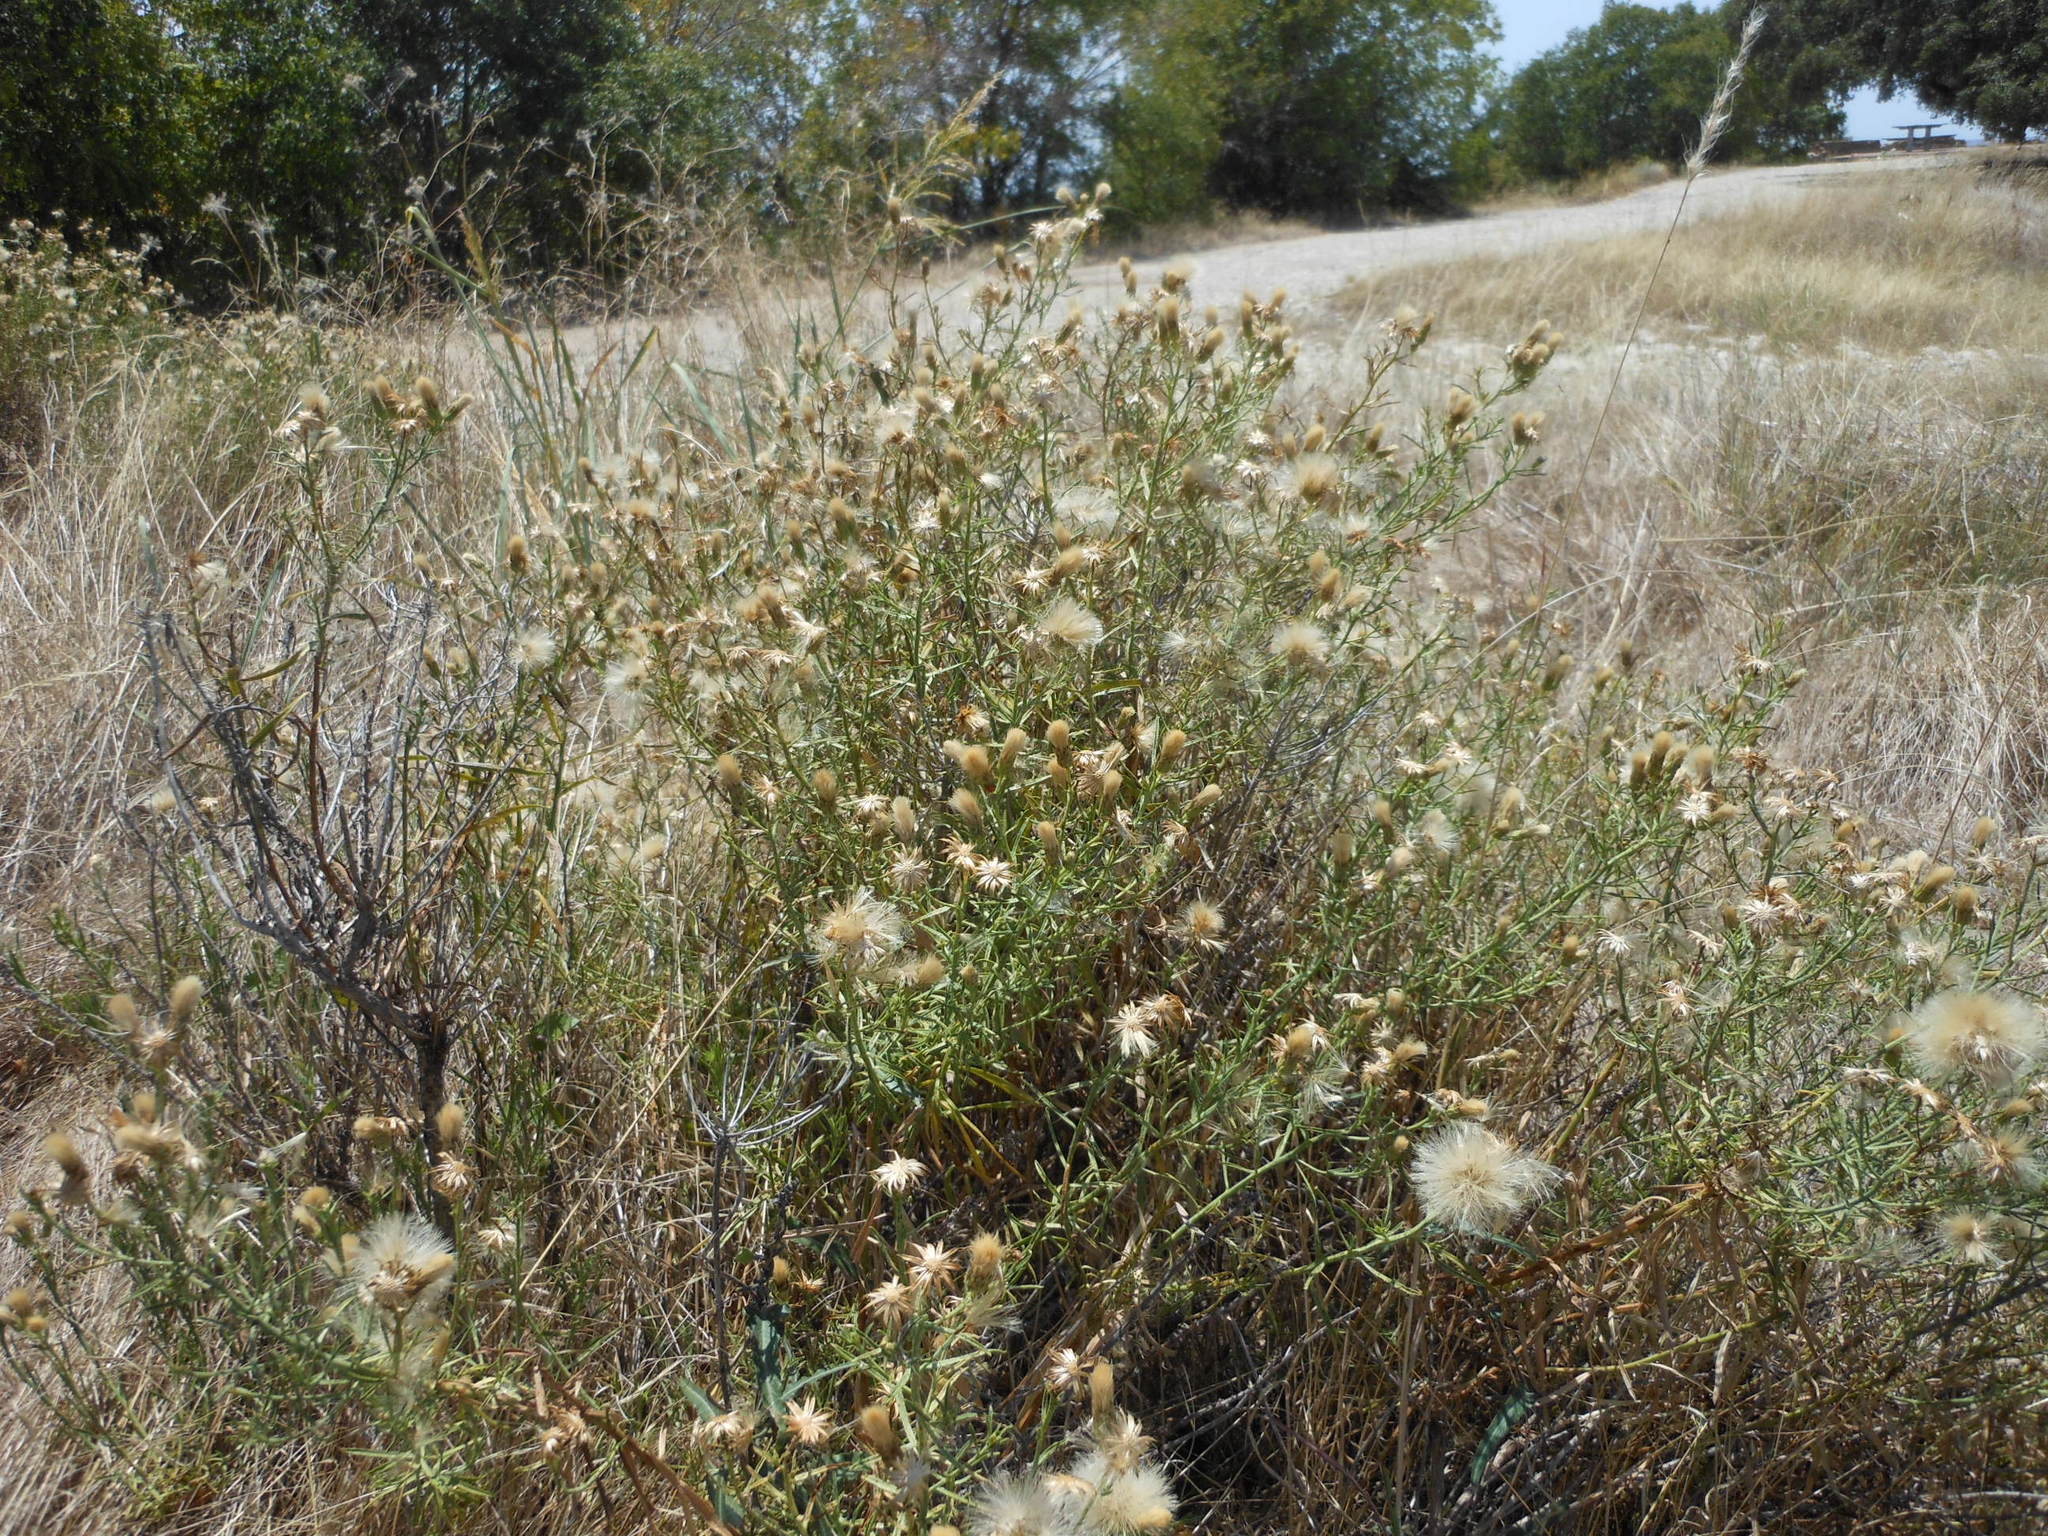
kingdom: Plantae
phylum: Tracheophyta
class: Magnoliopsida
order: Asterales
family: Asteraceae
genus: Baccharis
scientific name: Baccharis texana
